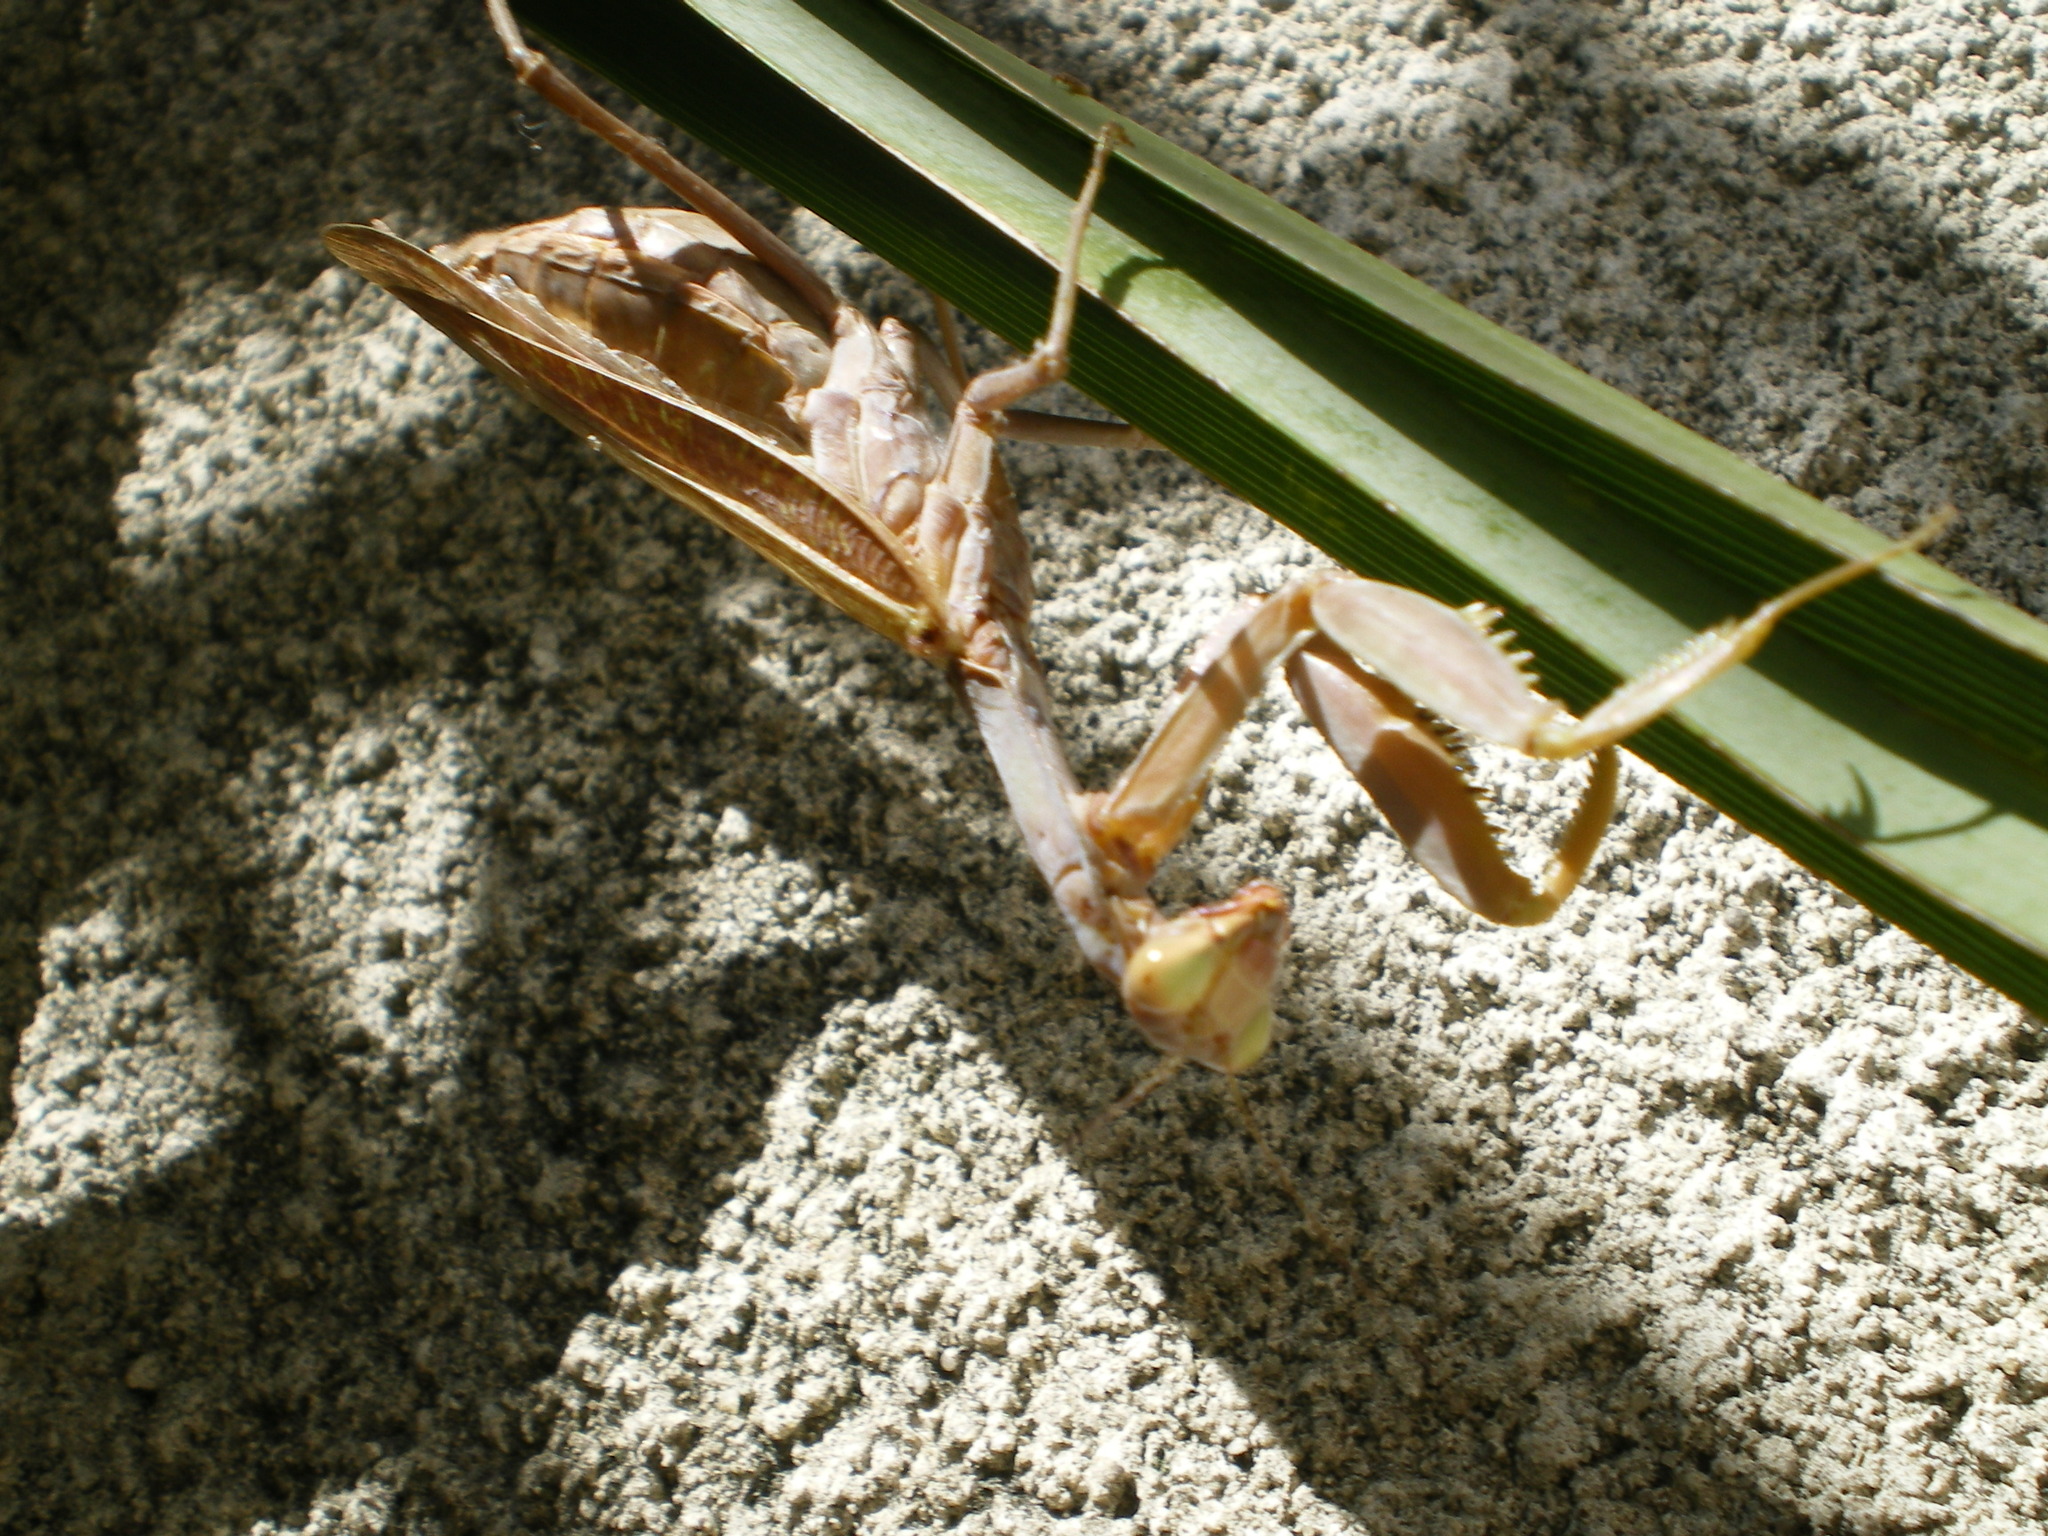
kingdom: Animalia
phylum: Arthropoda
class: Insecta
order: Mantodea
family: Mantidae
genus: Hierodula
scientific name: Hierodula transcaucasica
